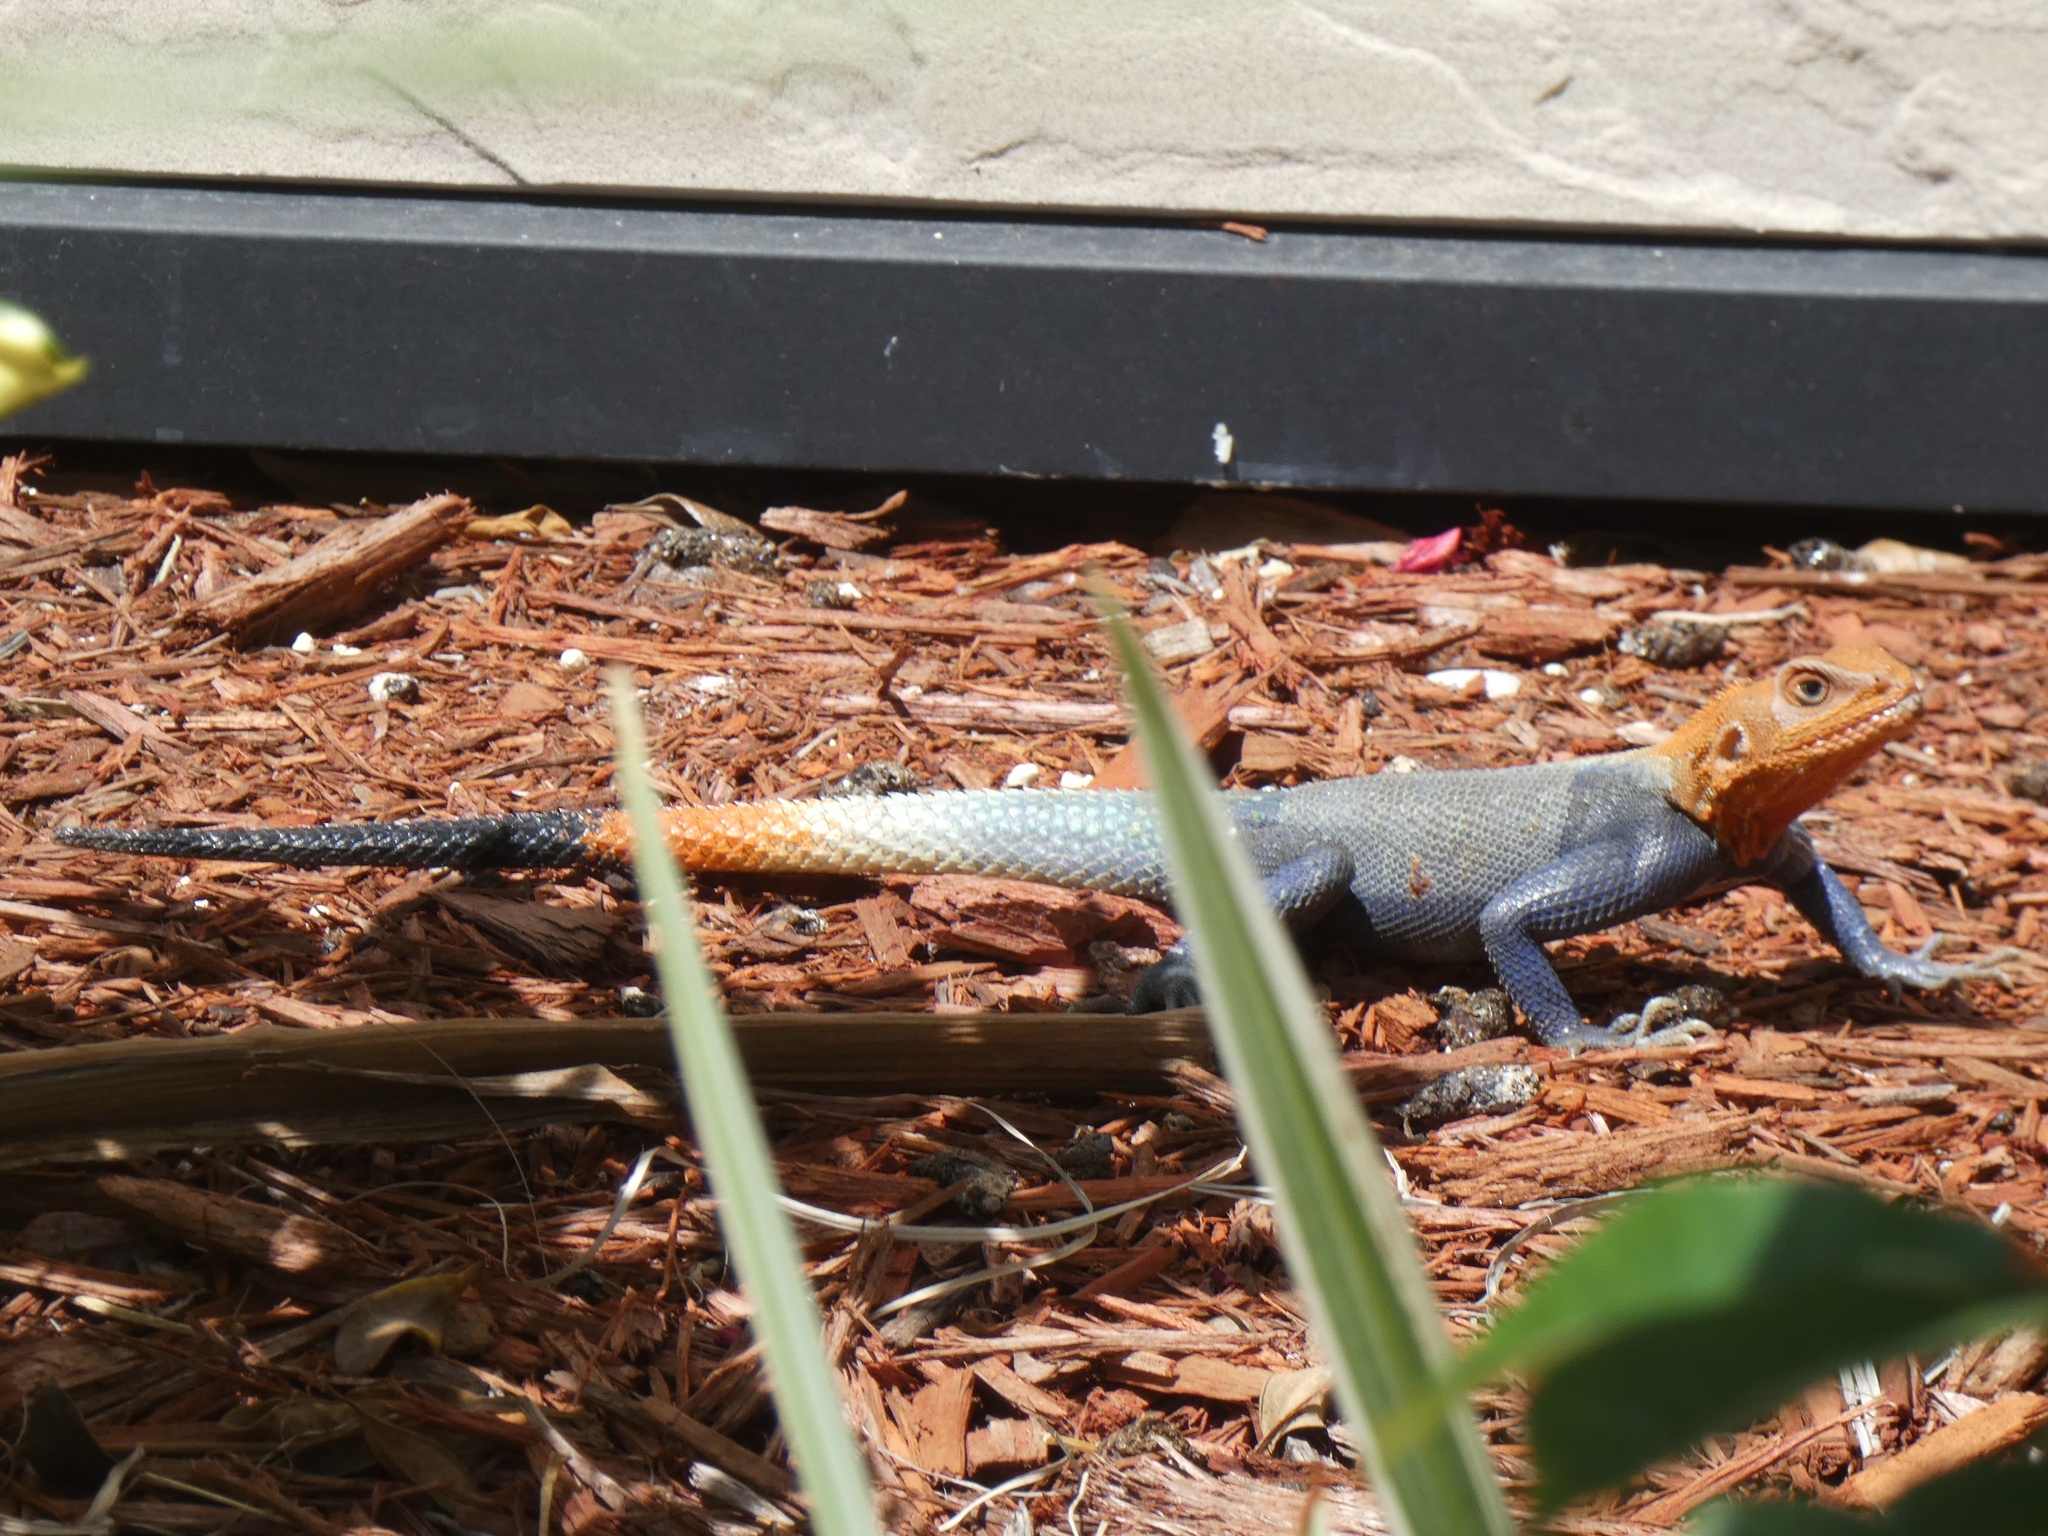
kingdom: Animalia
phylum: Chordata
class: Squamata
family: Agamidae
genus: Agama
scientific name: Agama picticauda
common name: Red-headed agama
